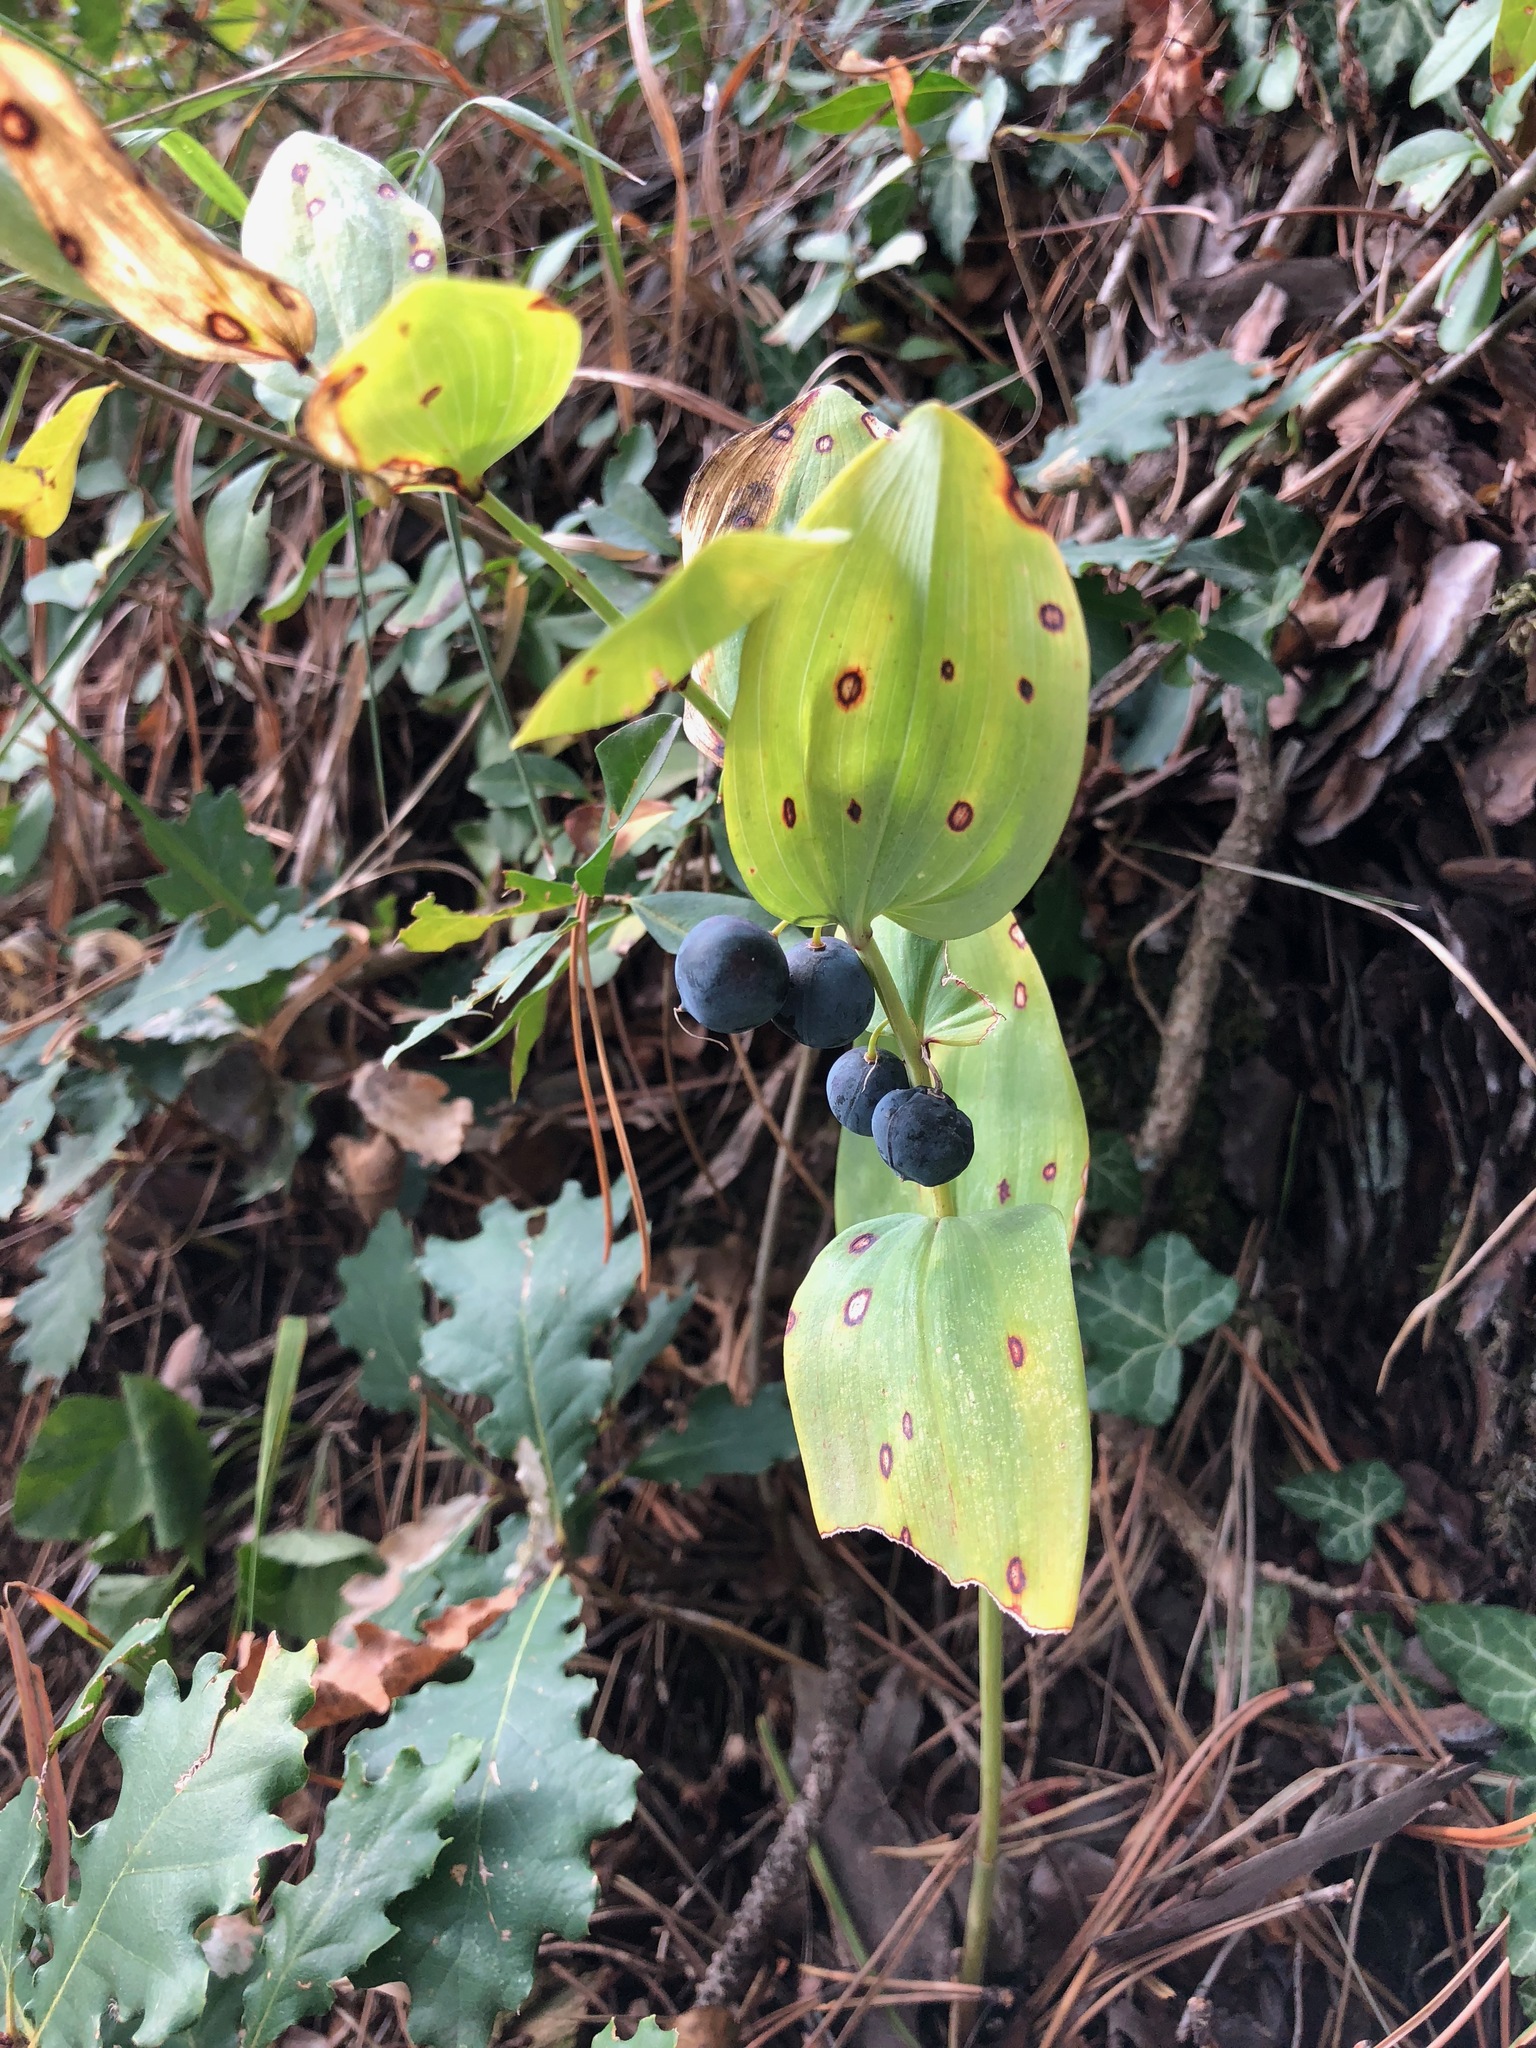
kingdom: Plantae
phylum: Tracheophyta
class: Liliopsida
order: Asparagales
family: Asparagaceae
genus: Polygonatum
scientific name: Polygonatum odoratum
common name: Angular solomon's-seal
